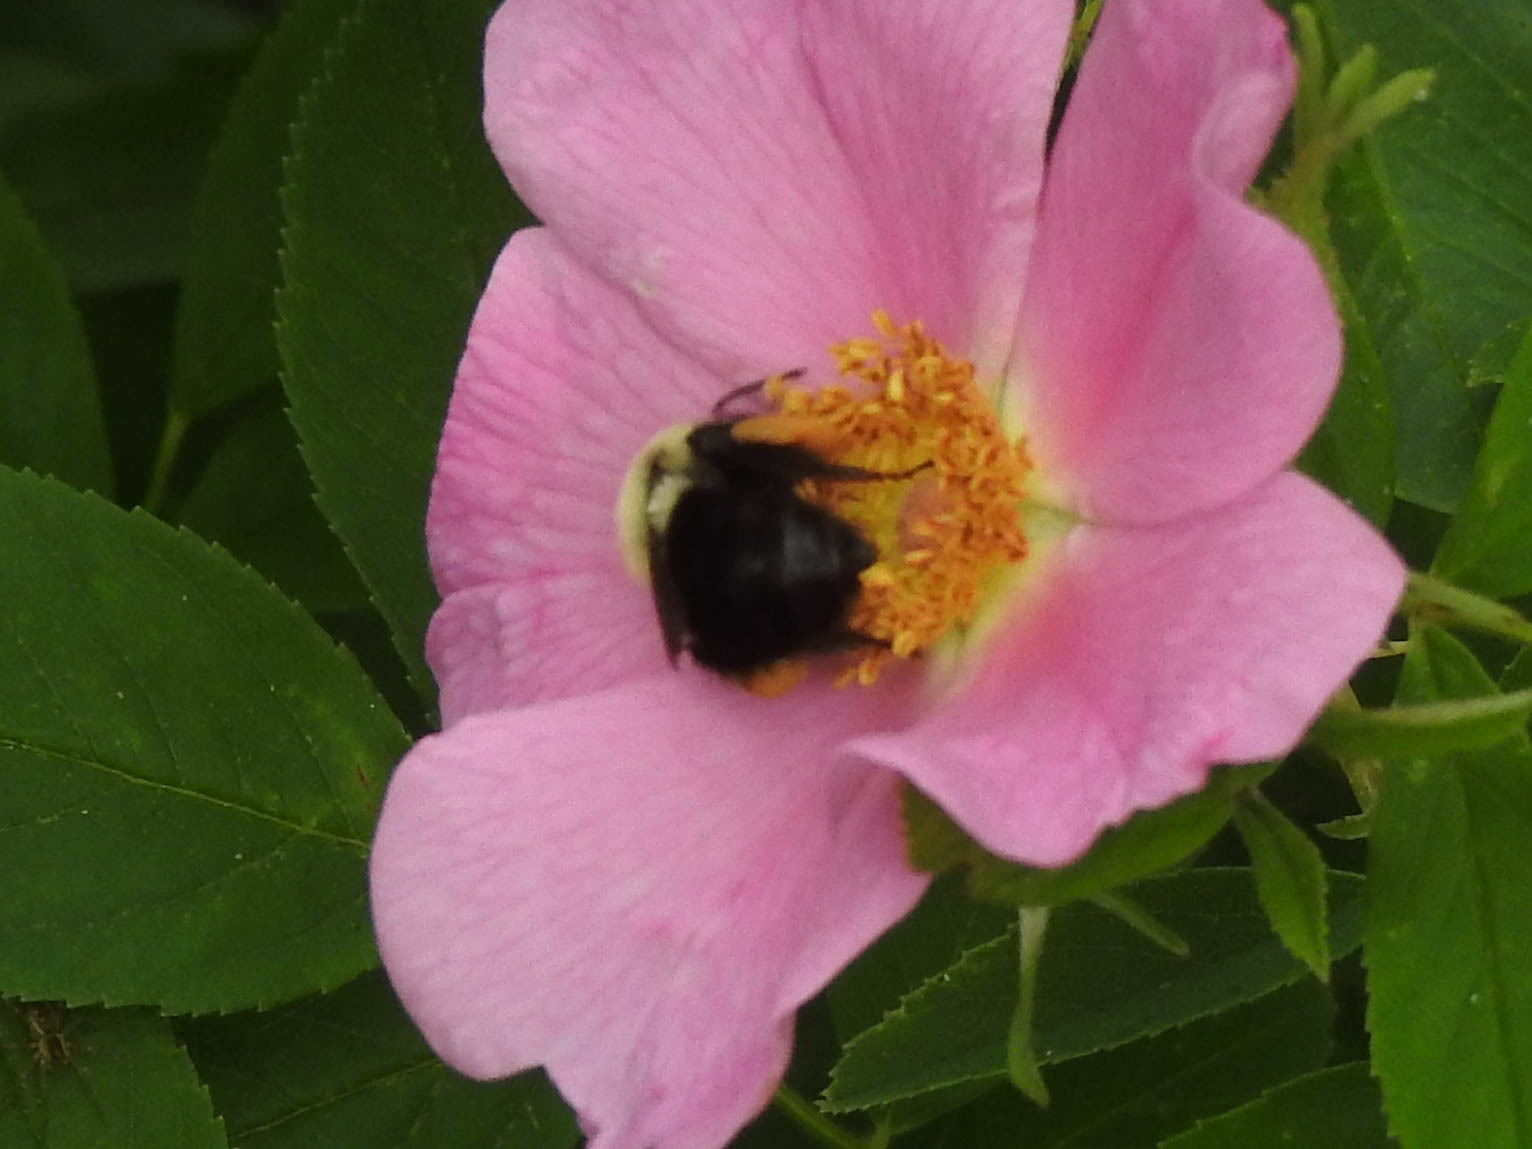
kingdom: Animalia
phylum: Arthropoda
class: Insecta
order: Hymenoptera
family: Apidae
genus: Bombus
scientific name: Bombus impatiens
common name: Common eastern bumble bee
